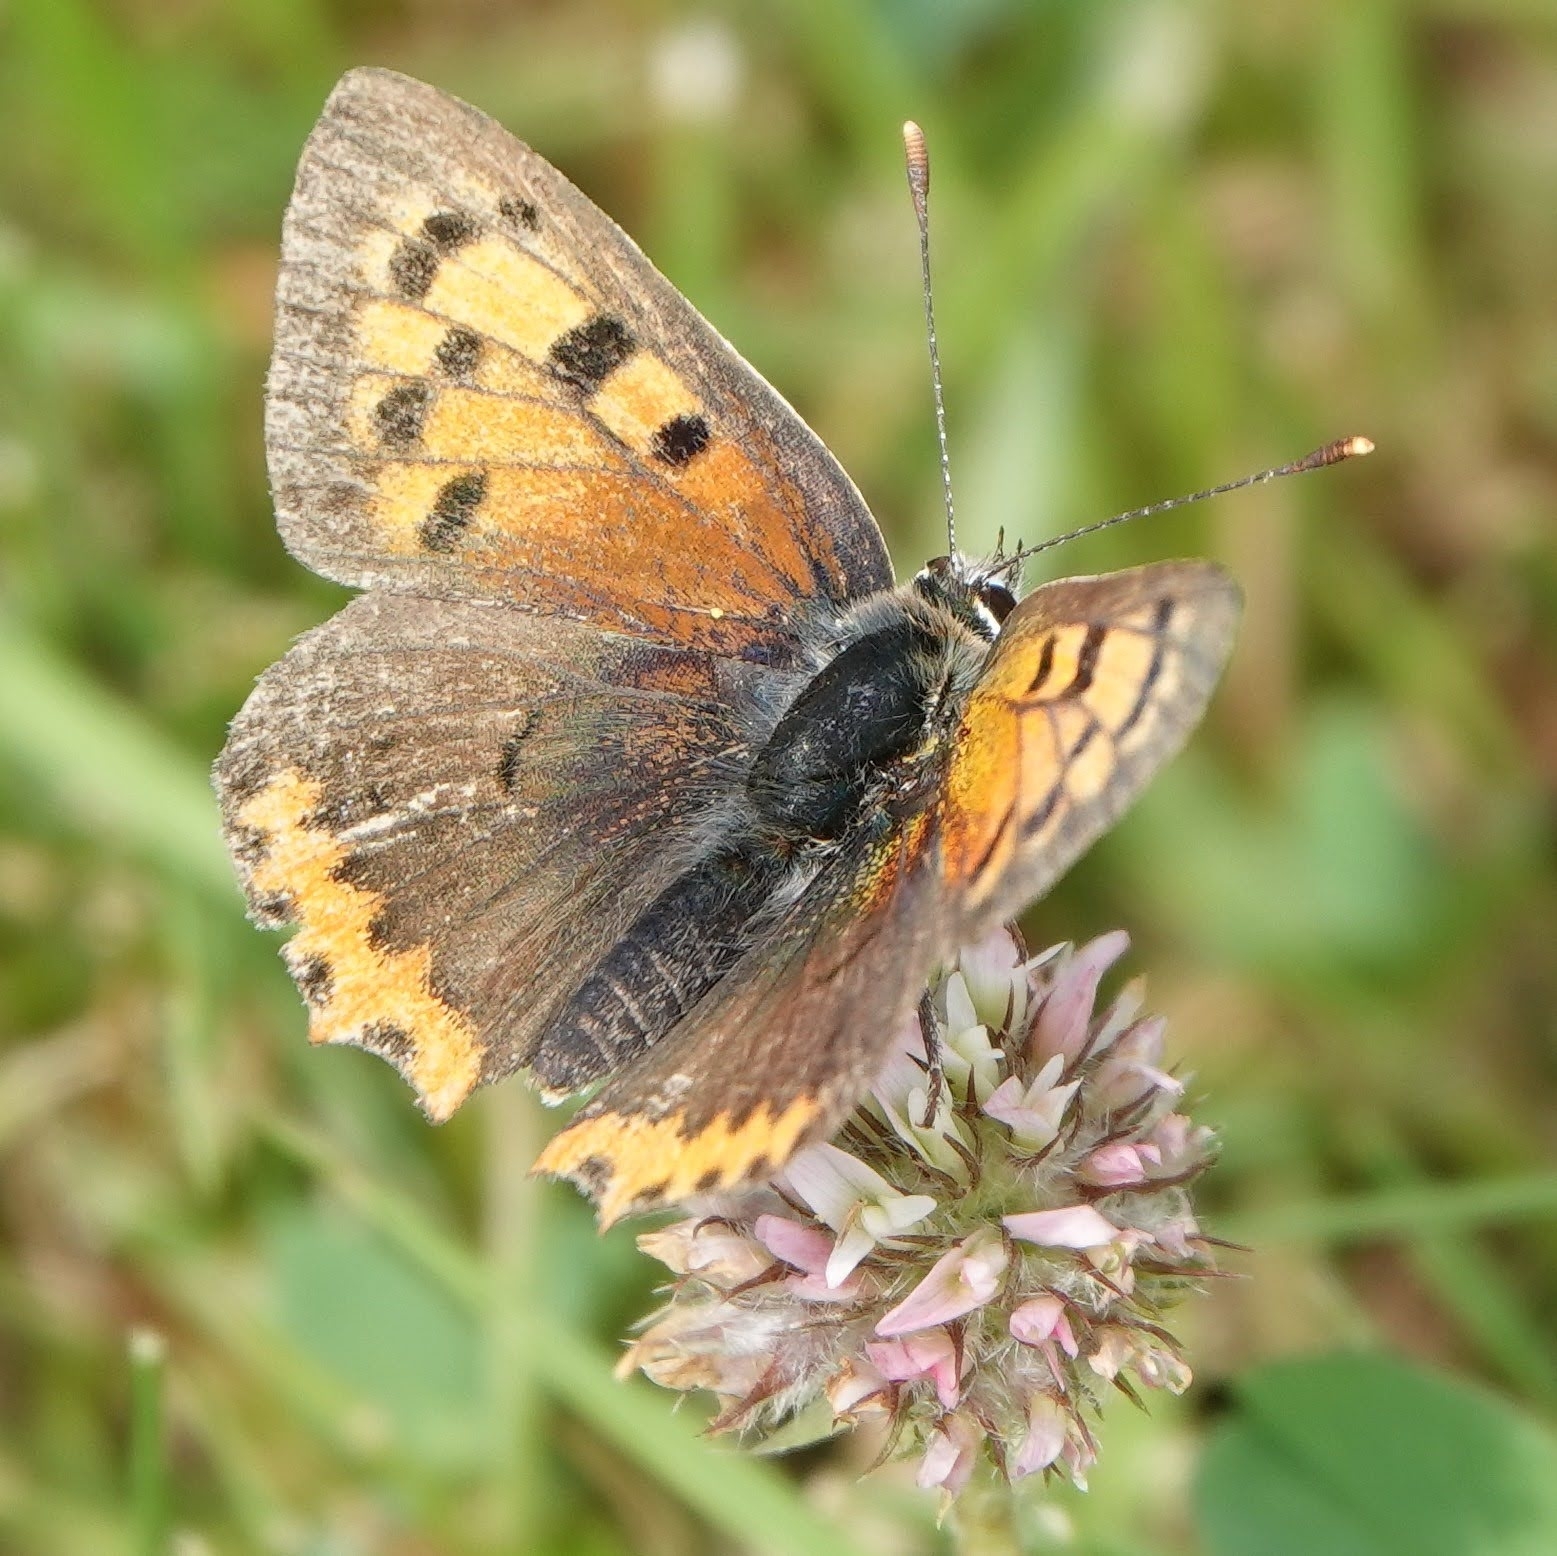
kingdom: Animalia
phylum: Arthropoda
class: Insecta
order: Lepidoptera
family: Lycaenidae
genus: Lycaena
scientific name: Lycaena phlaeas
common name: Small copper
